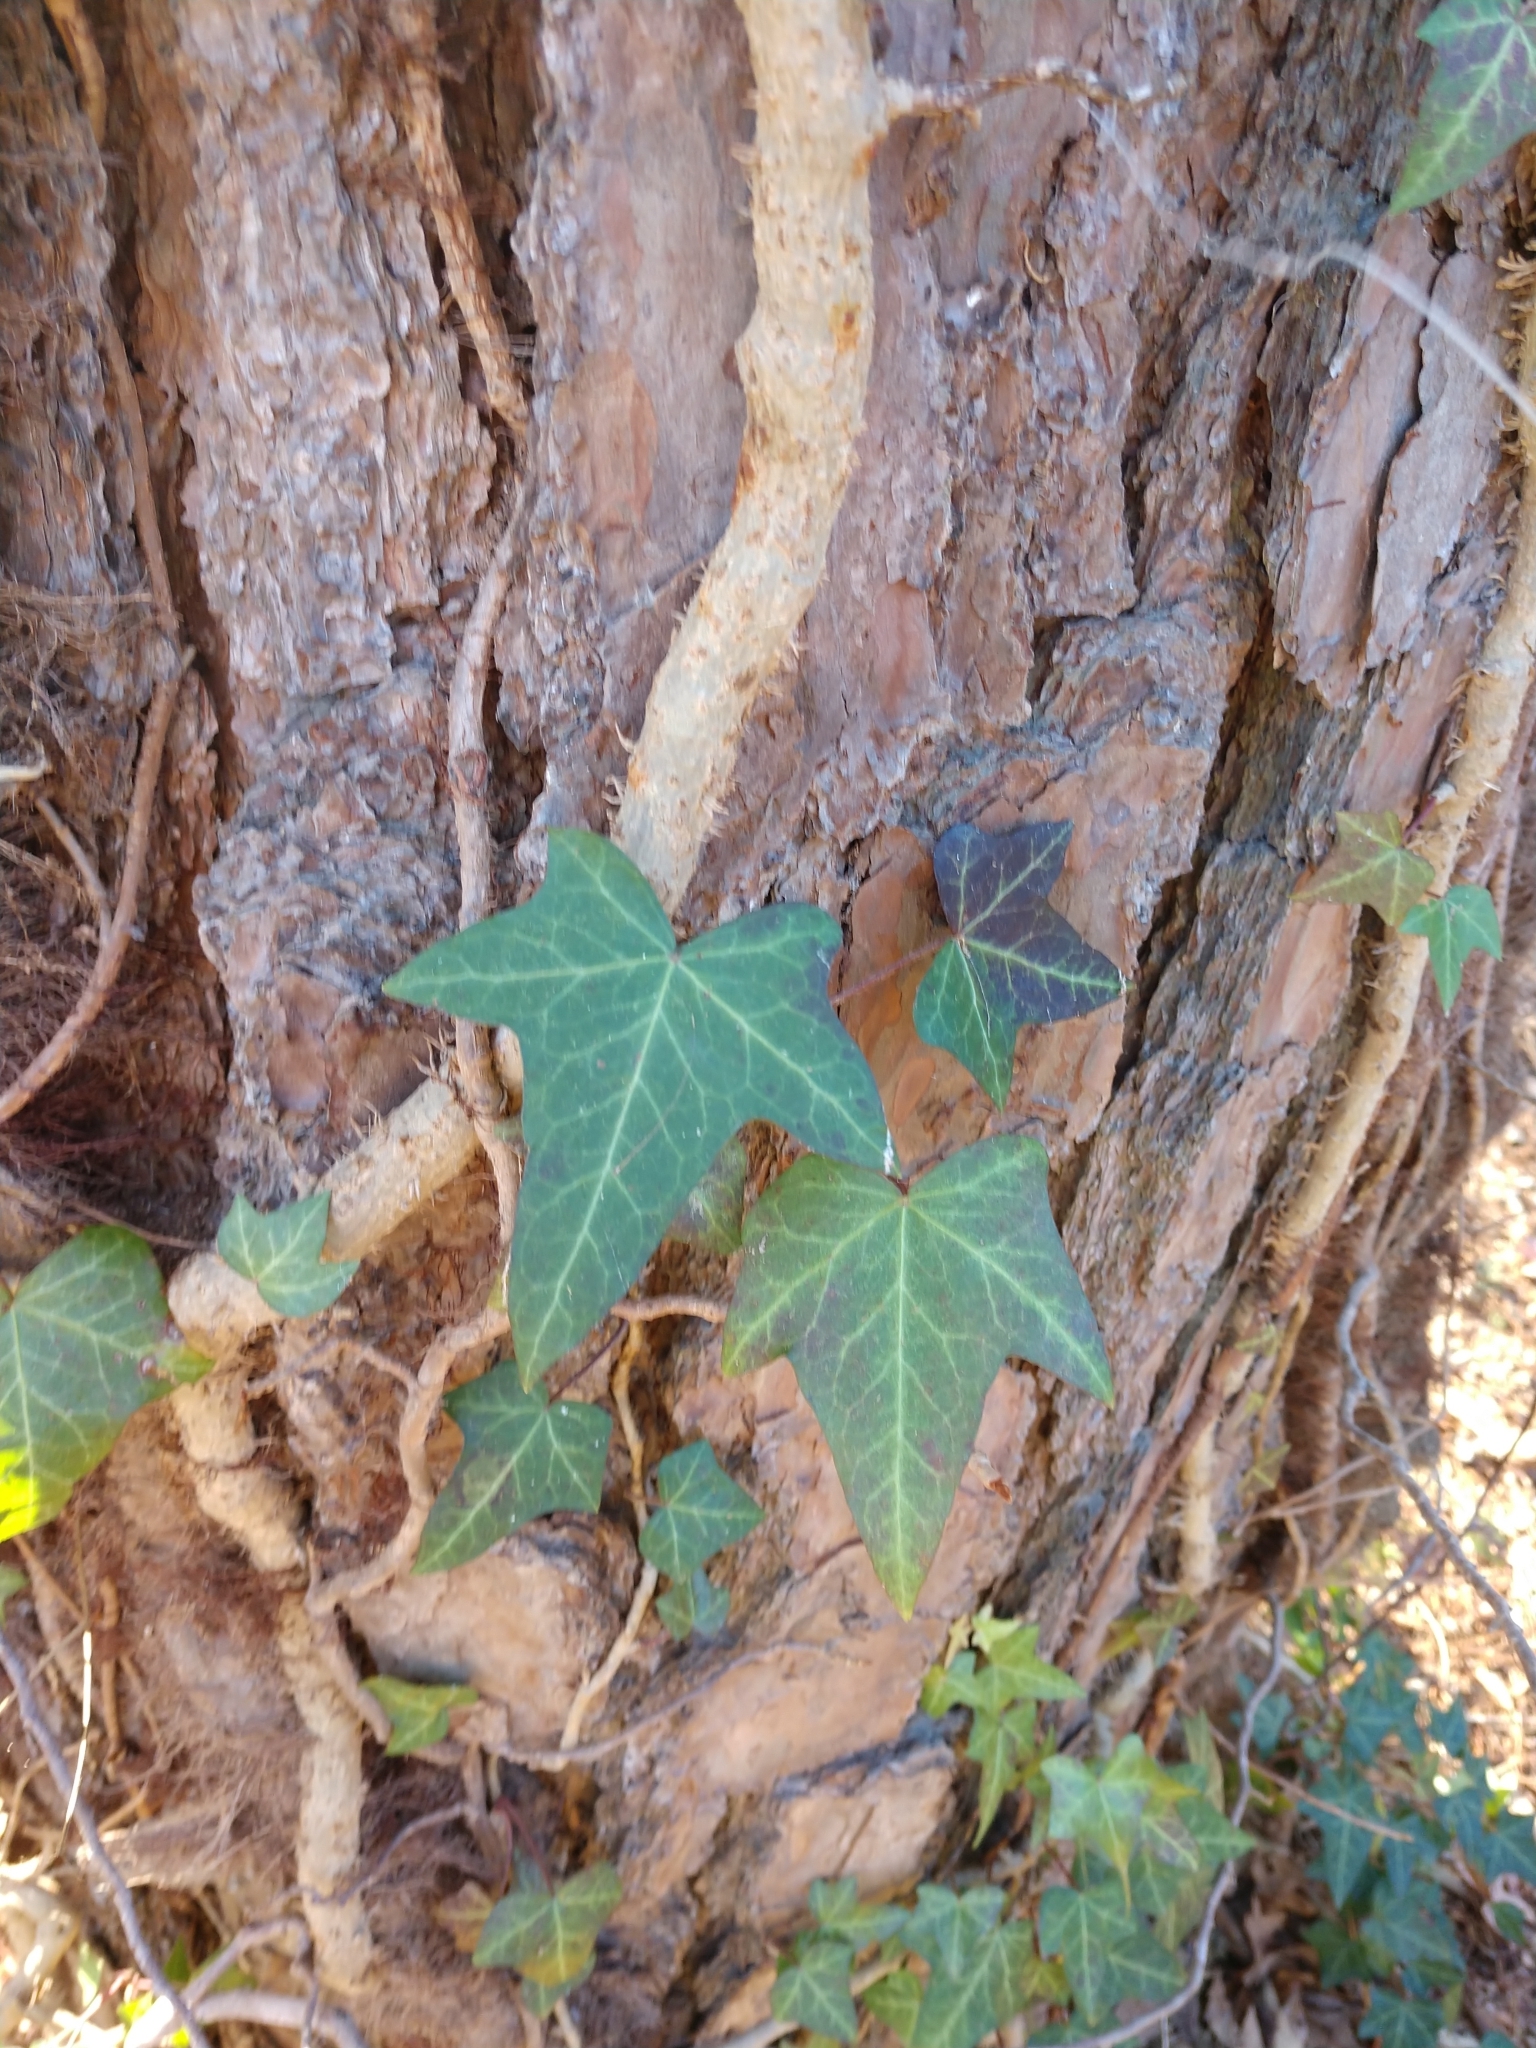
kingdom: Plantae
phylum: Tracheophyta
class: Magnoliopsida
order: Apiales
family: Araliaceae
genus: Hedera
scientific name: Hedera helix
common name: Ivy
